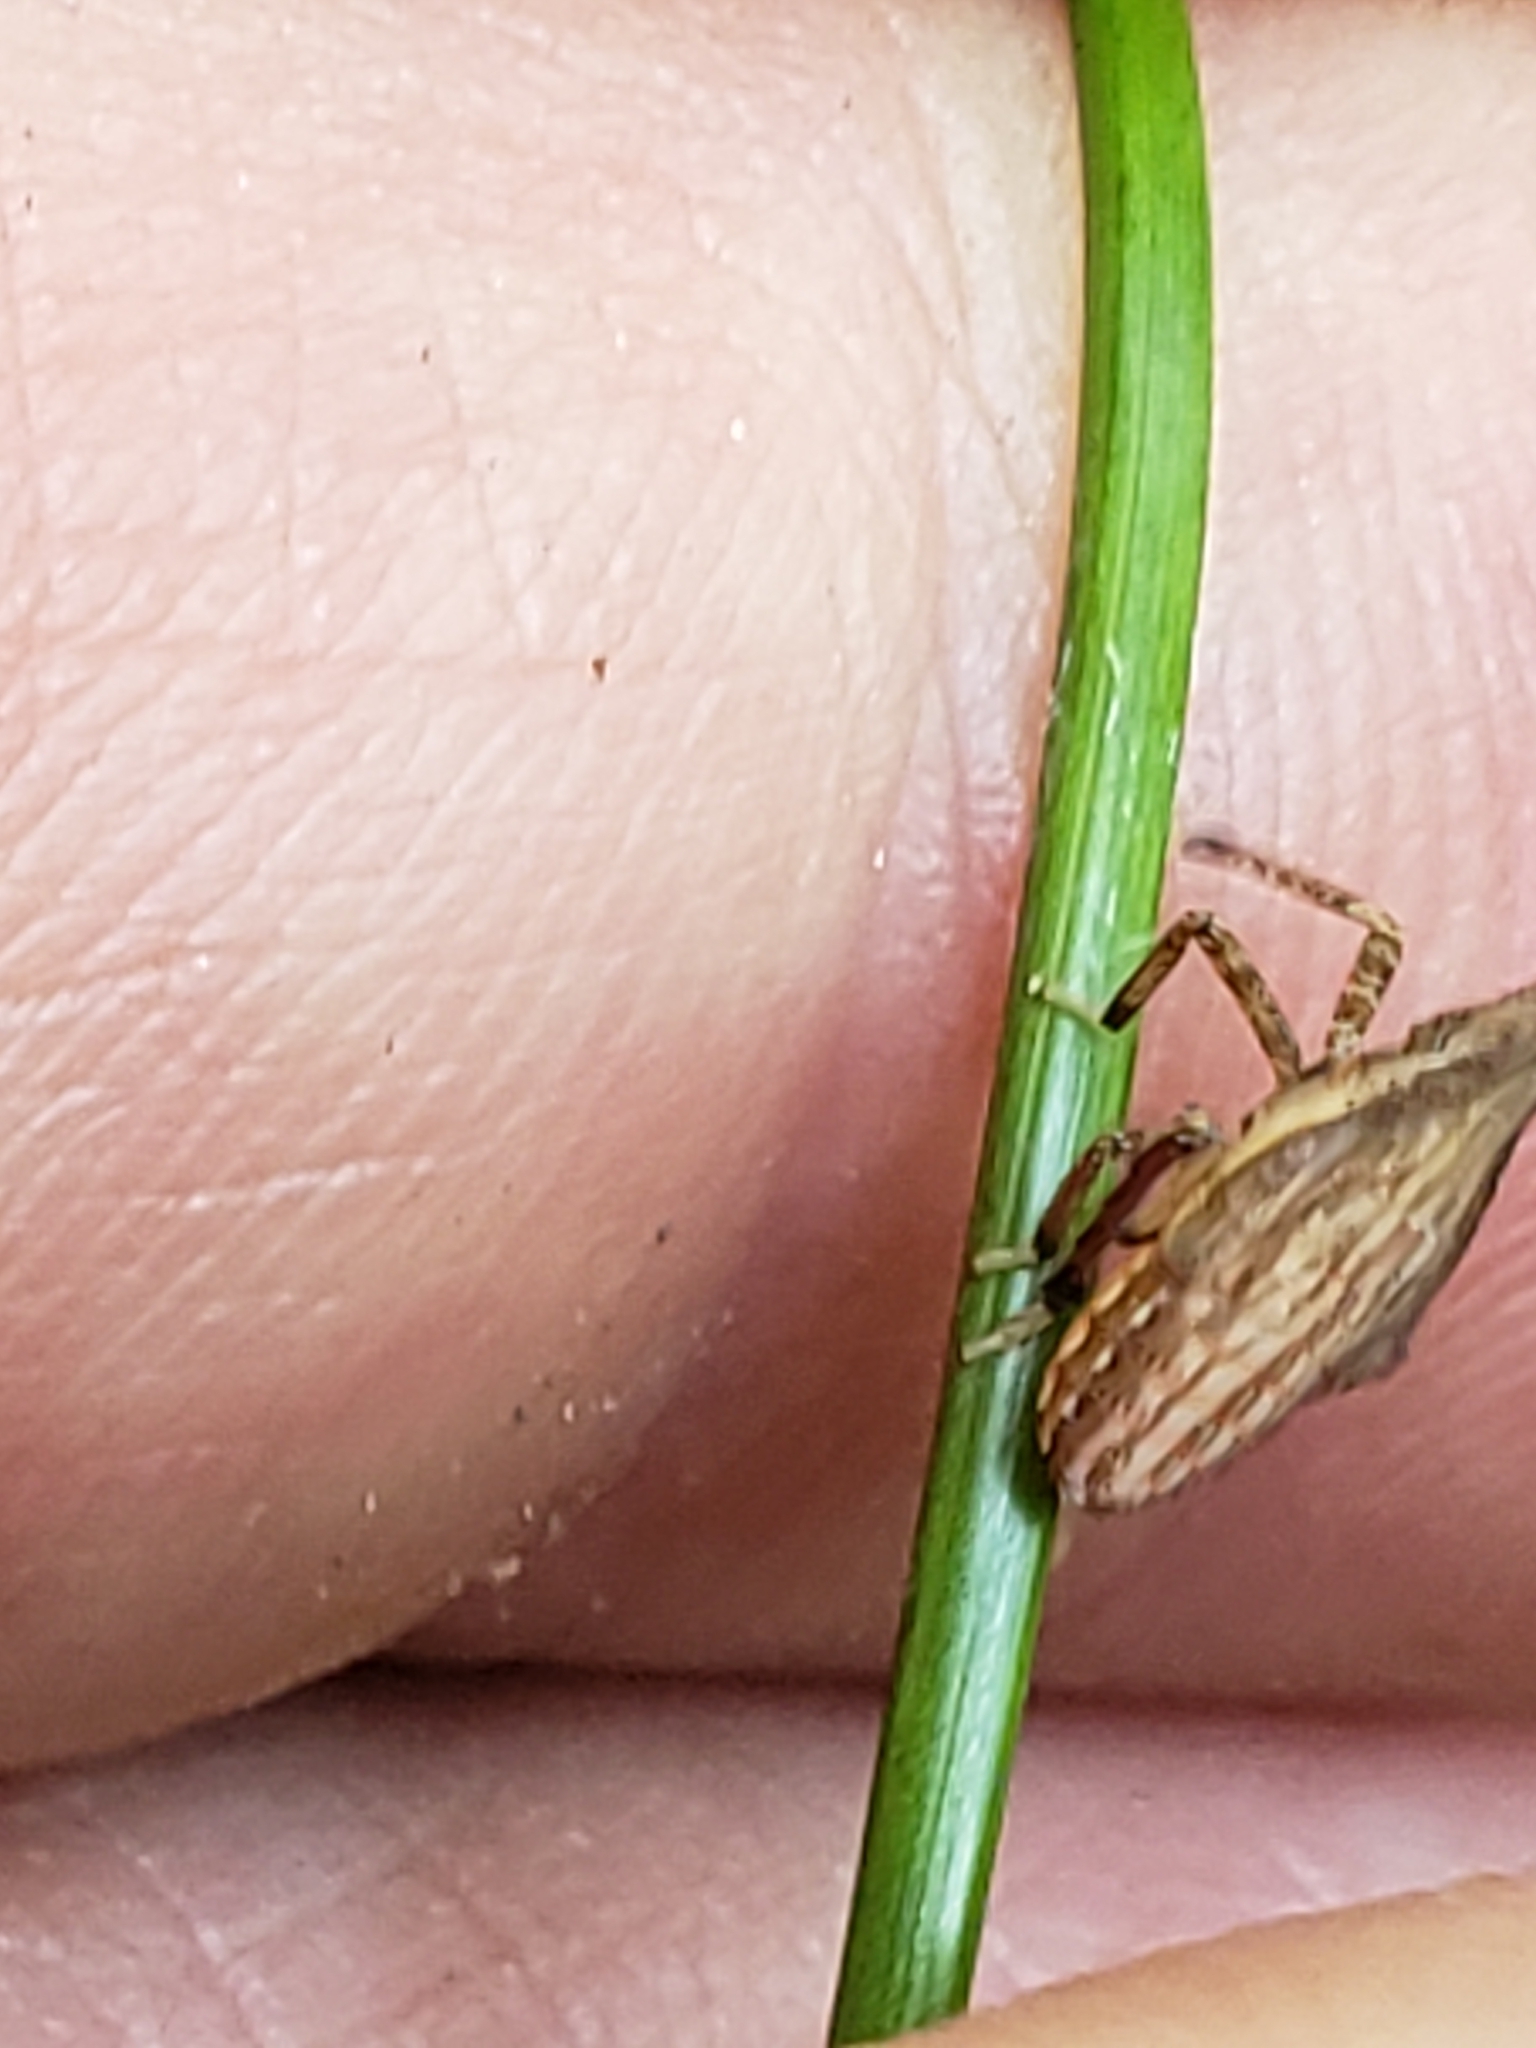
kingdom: Animalia
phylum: Arthropoda
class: Insecta
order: Hemiptera
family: Dictyopharidae
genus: Rhynchomitra
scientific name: Rhynchomitra microrhina
